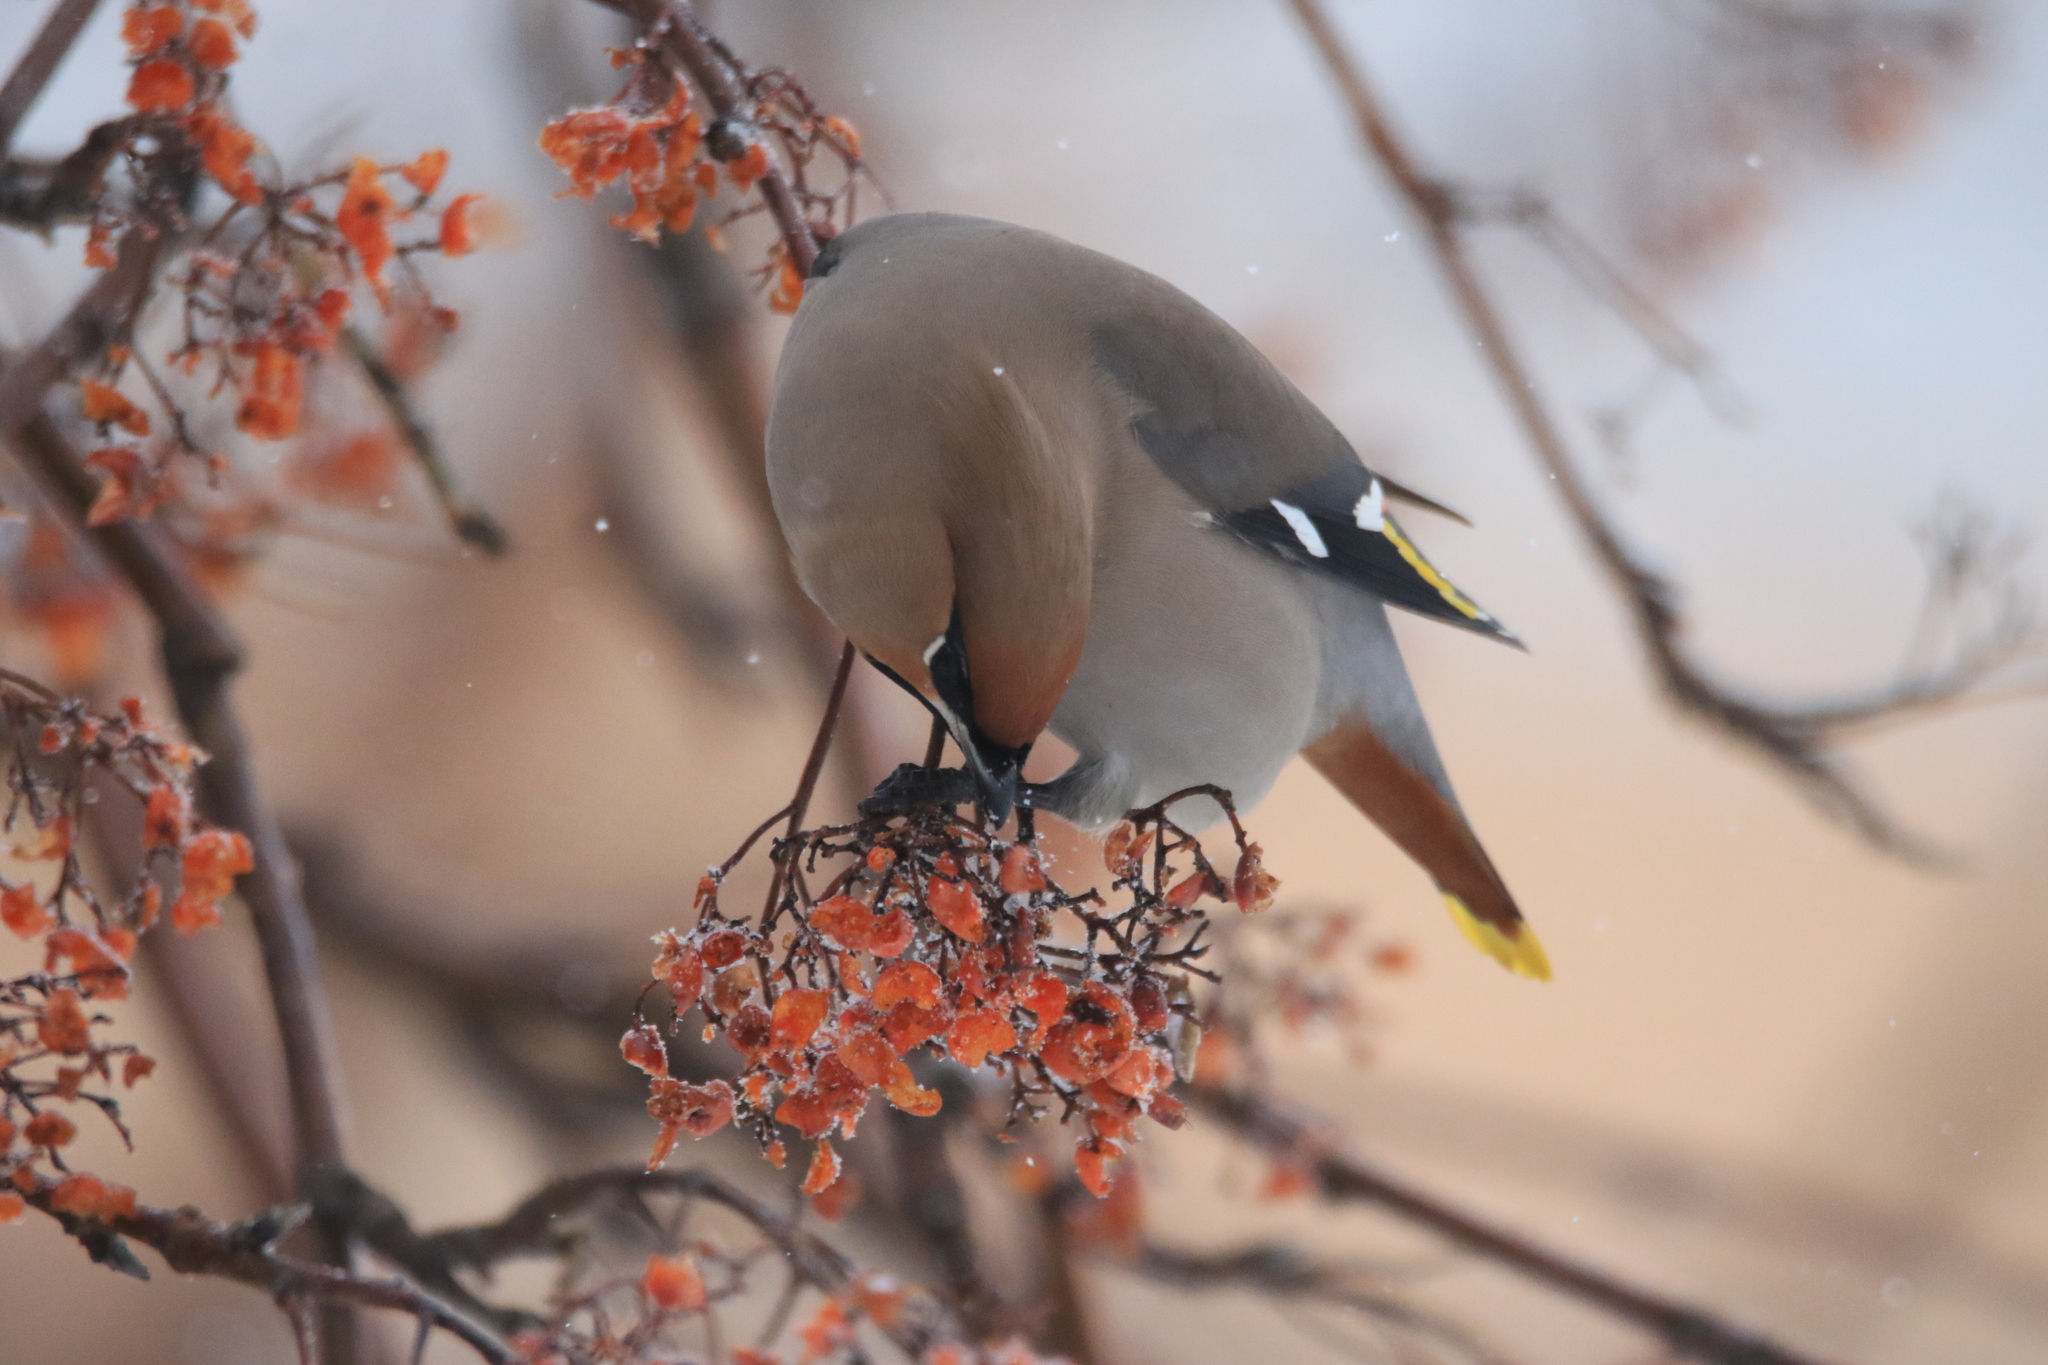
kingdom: Animalia
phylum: Chordata
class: Aves
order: Passeriformes
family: Bombycillidae
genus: Bombycilla
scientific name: Bombycilla garrulus
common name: Bohemian waxwing
